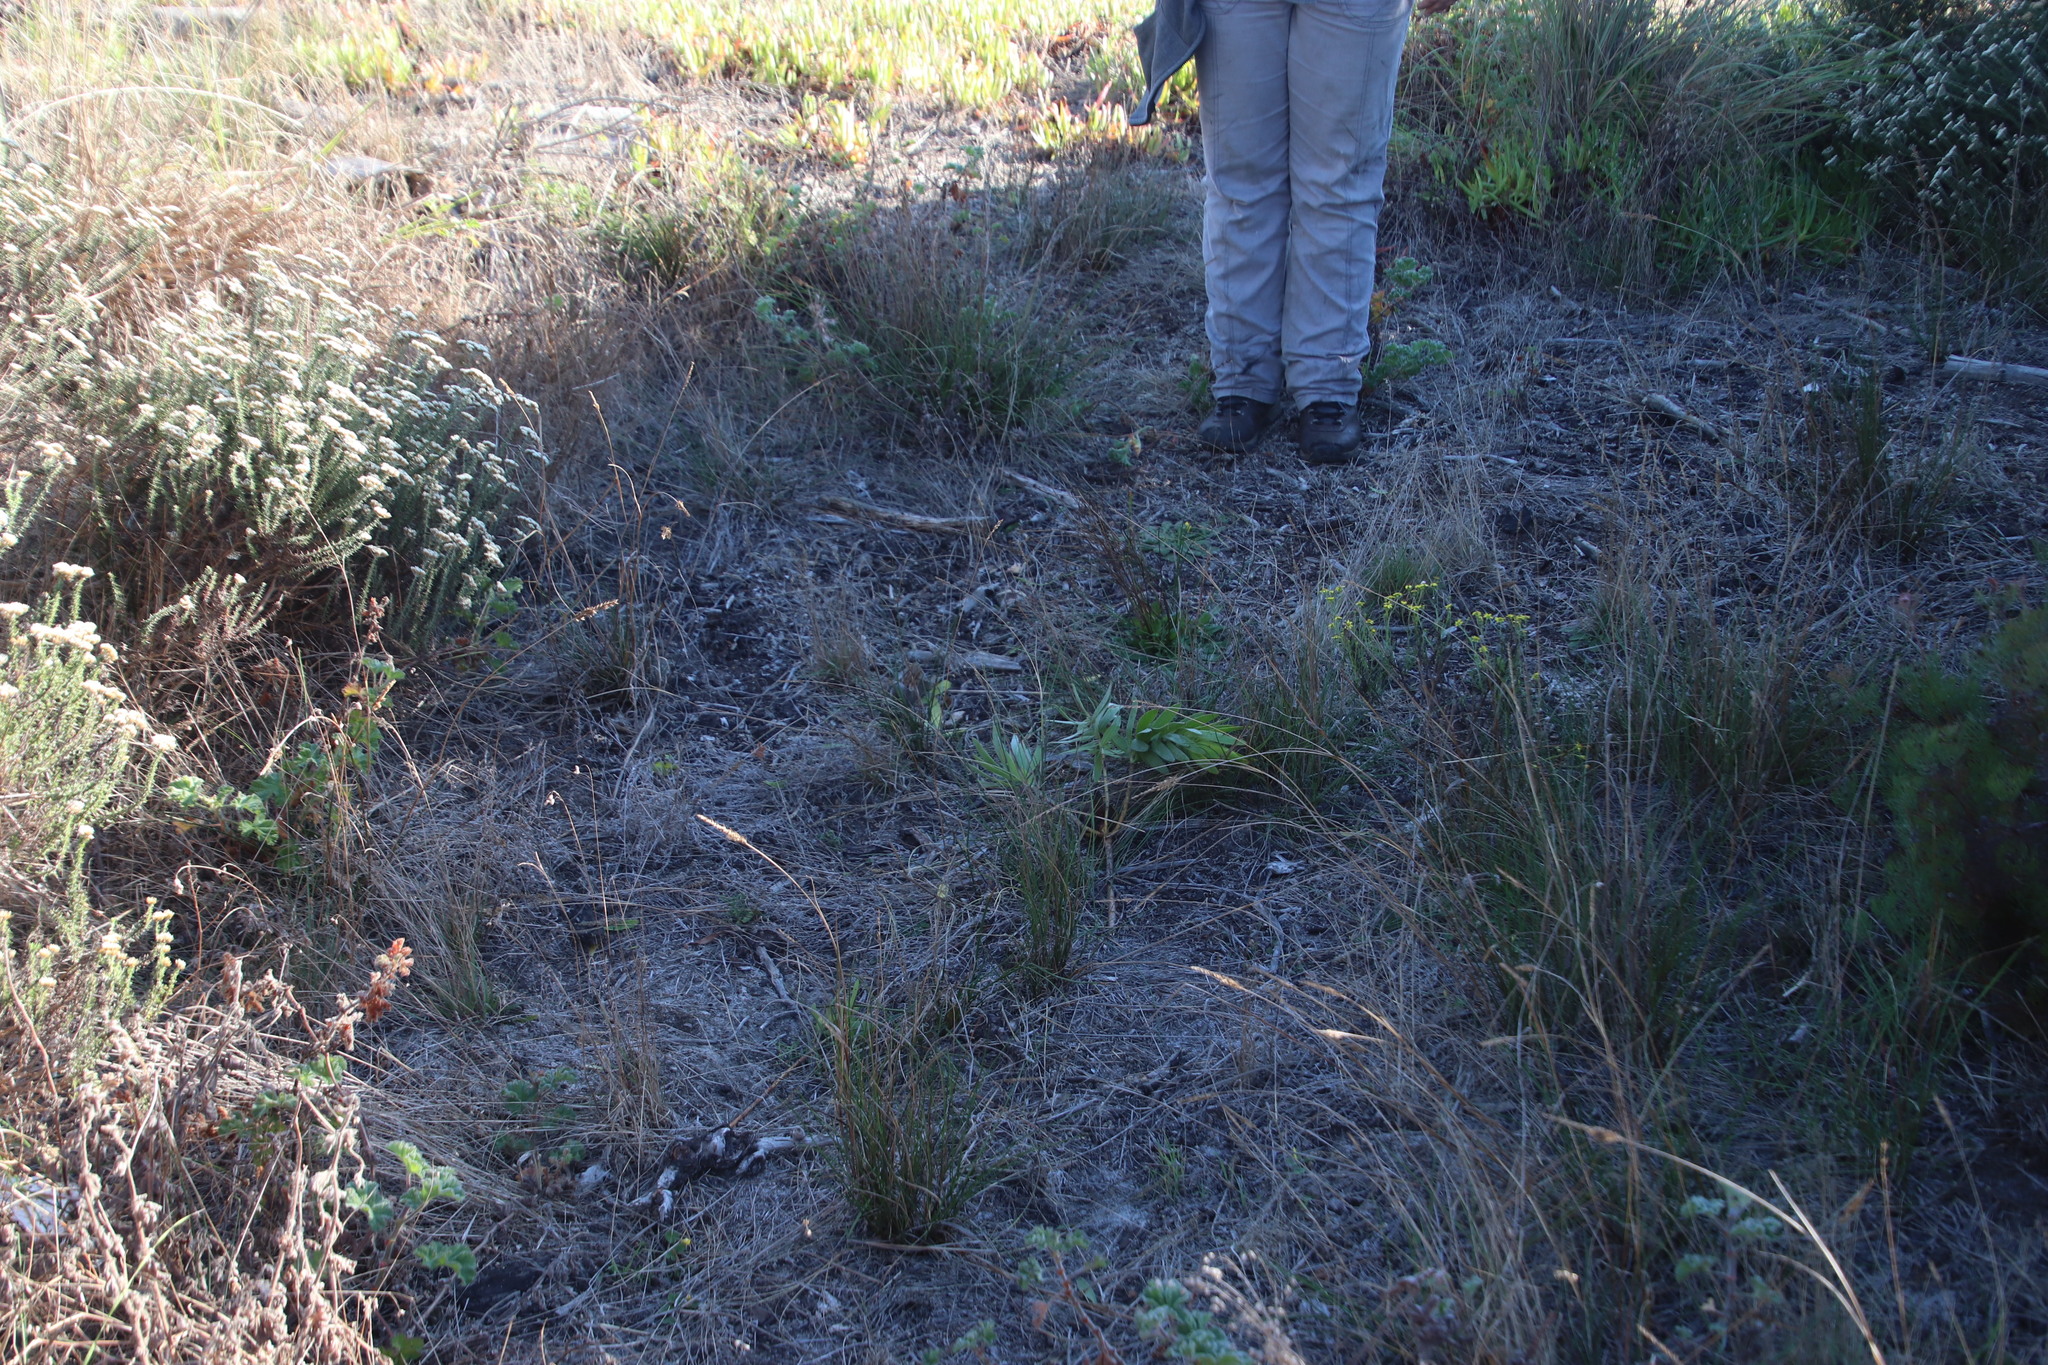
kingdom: Plantae
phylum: Tracheophyta
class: Magnoliopsida
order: Proteales
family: Proteaceae
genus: Protea
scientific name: Protea repens
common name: Sugarbush
